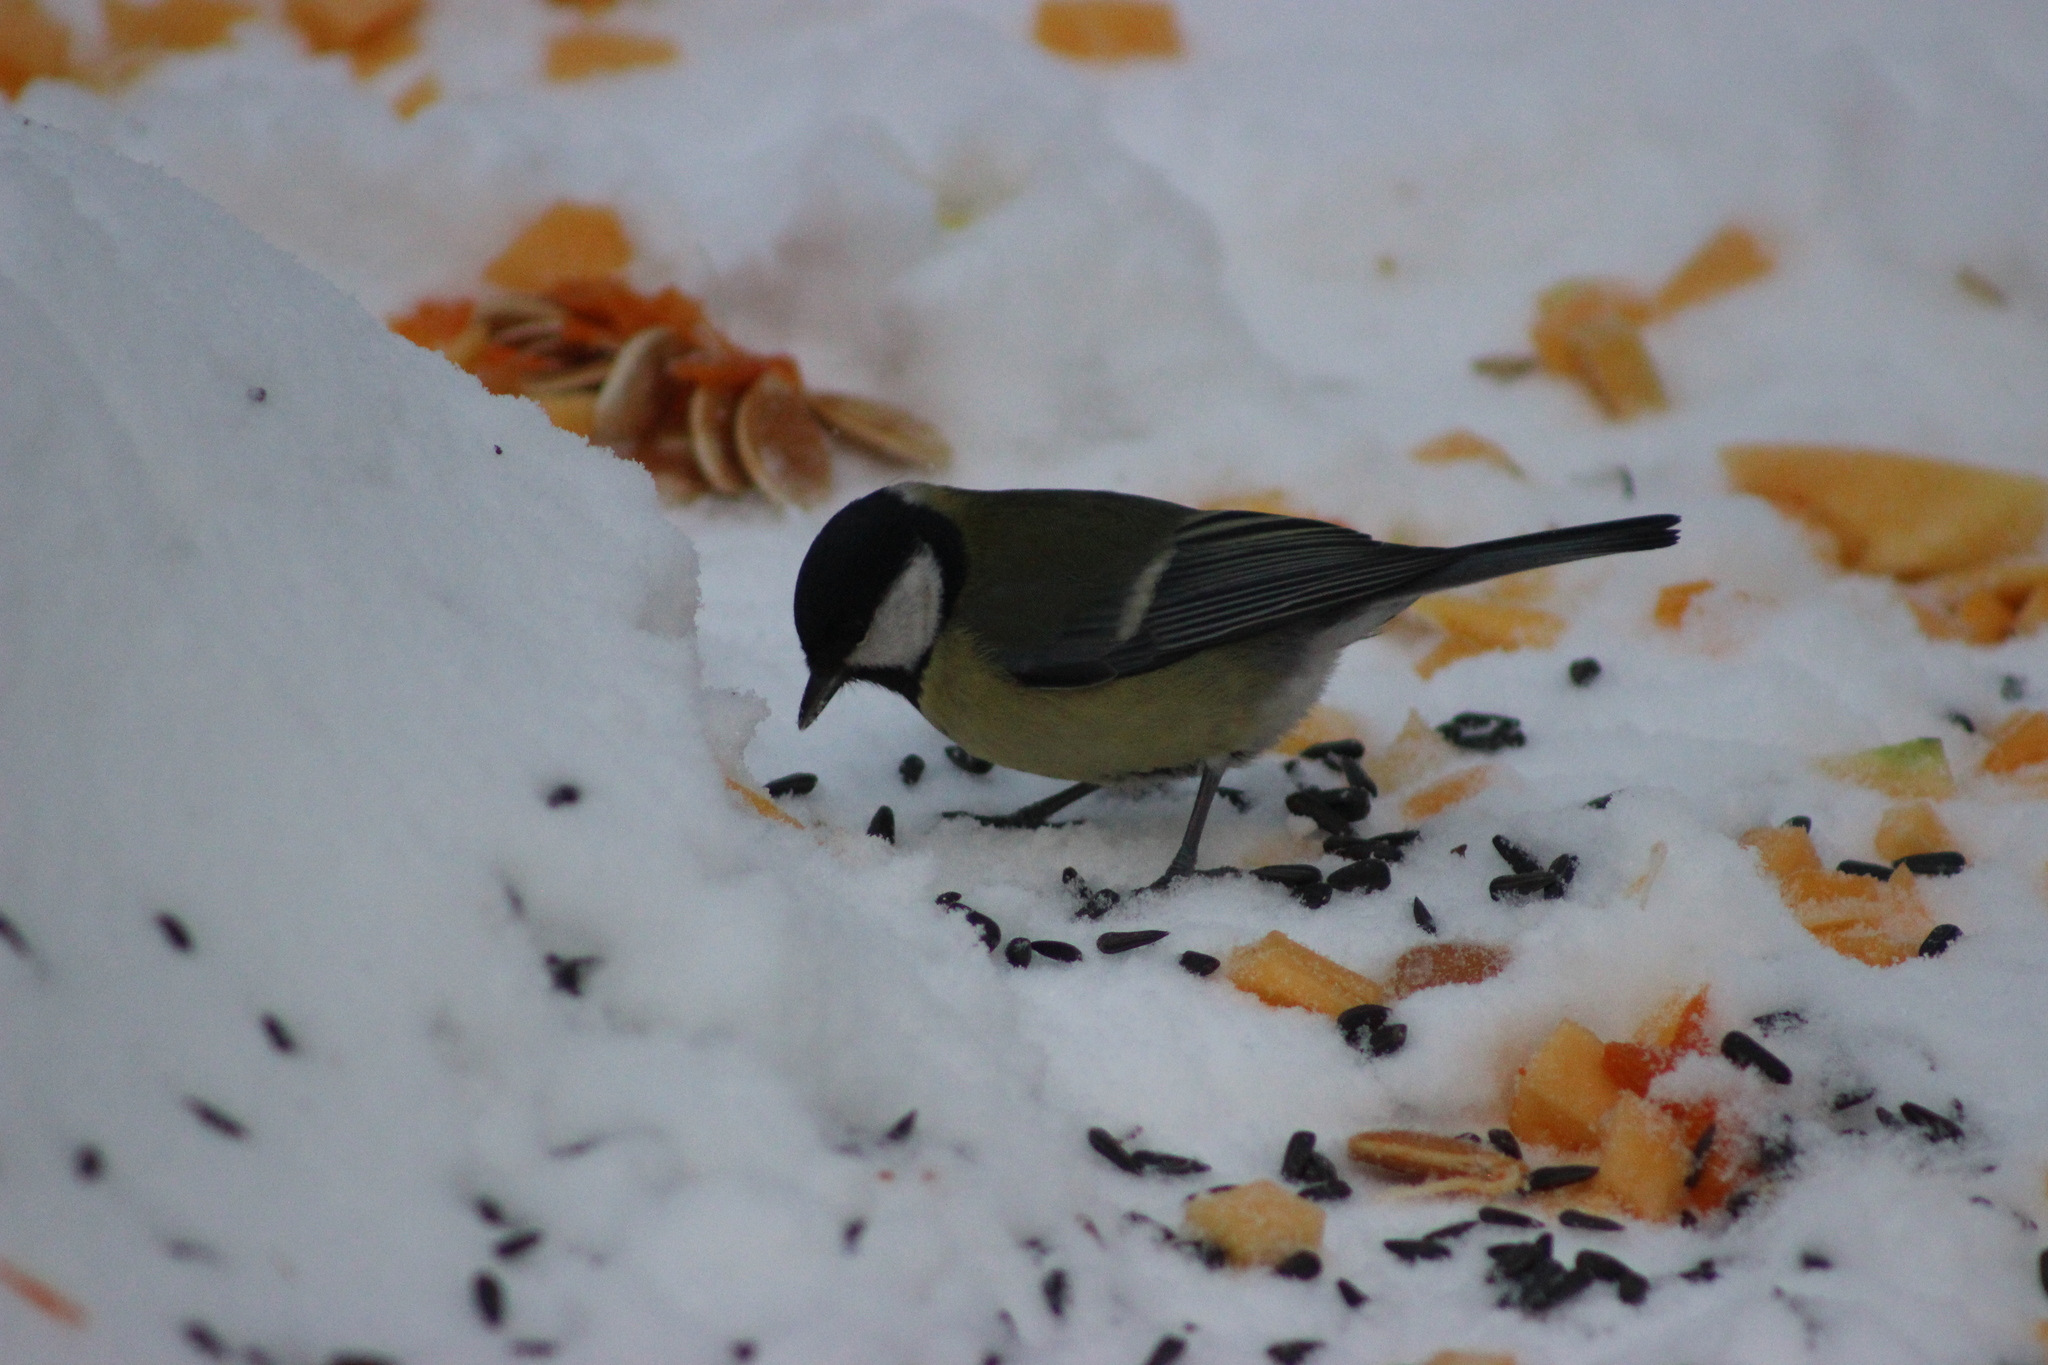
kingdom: Animalia
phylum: Chordata
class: Aves
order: Passeriformes
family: Paridae
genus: Parus
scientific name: Parus major
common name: Great tit
